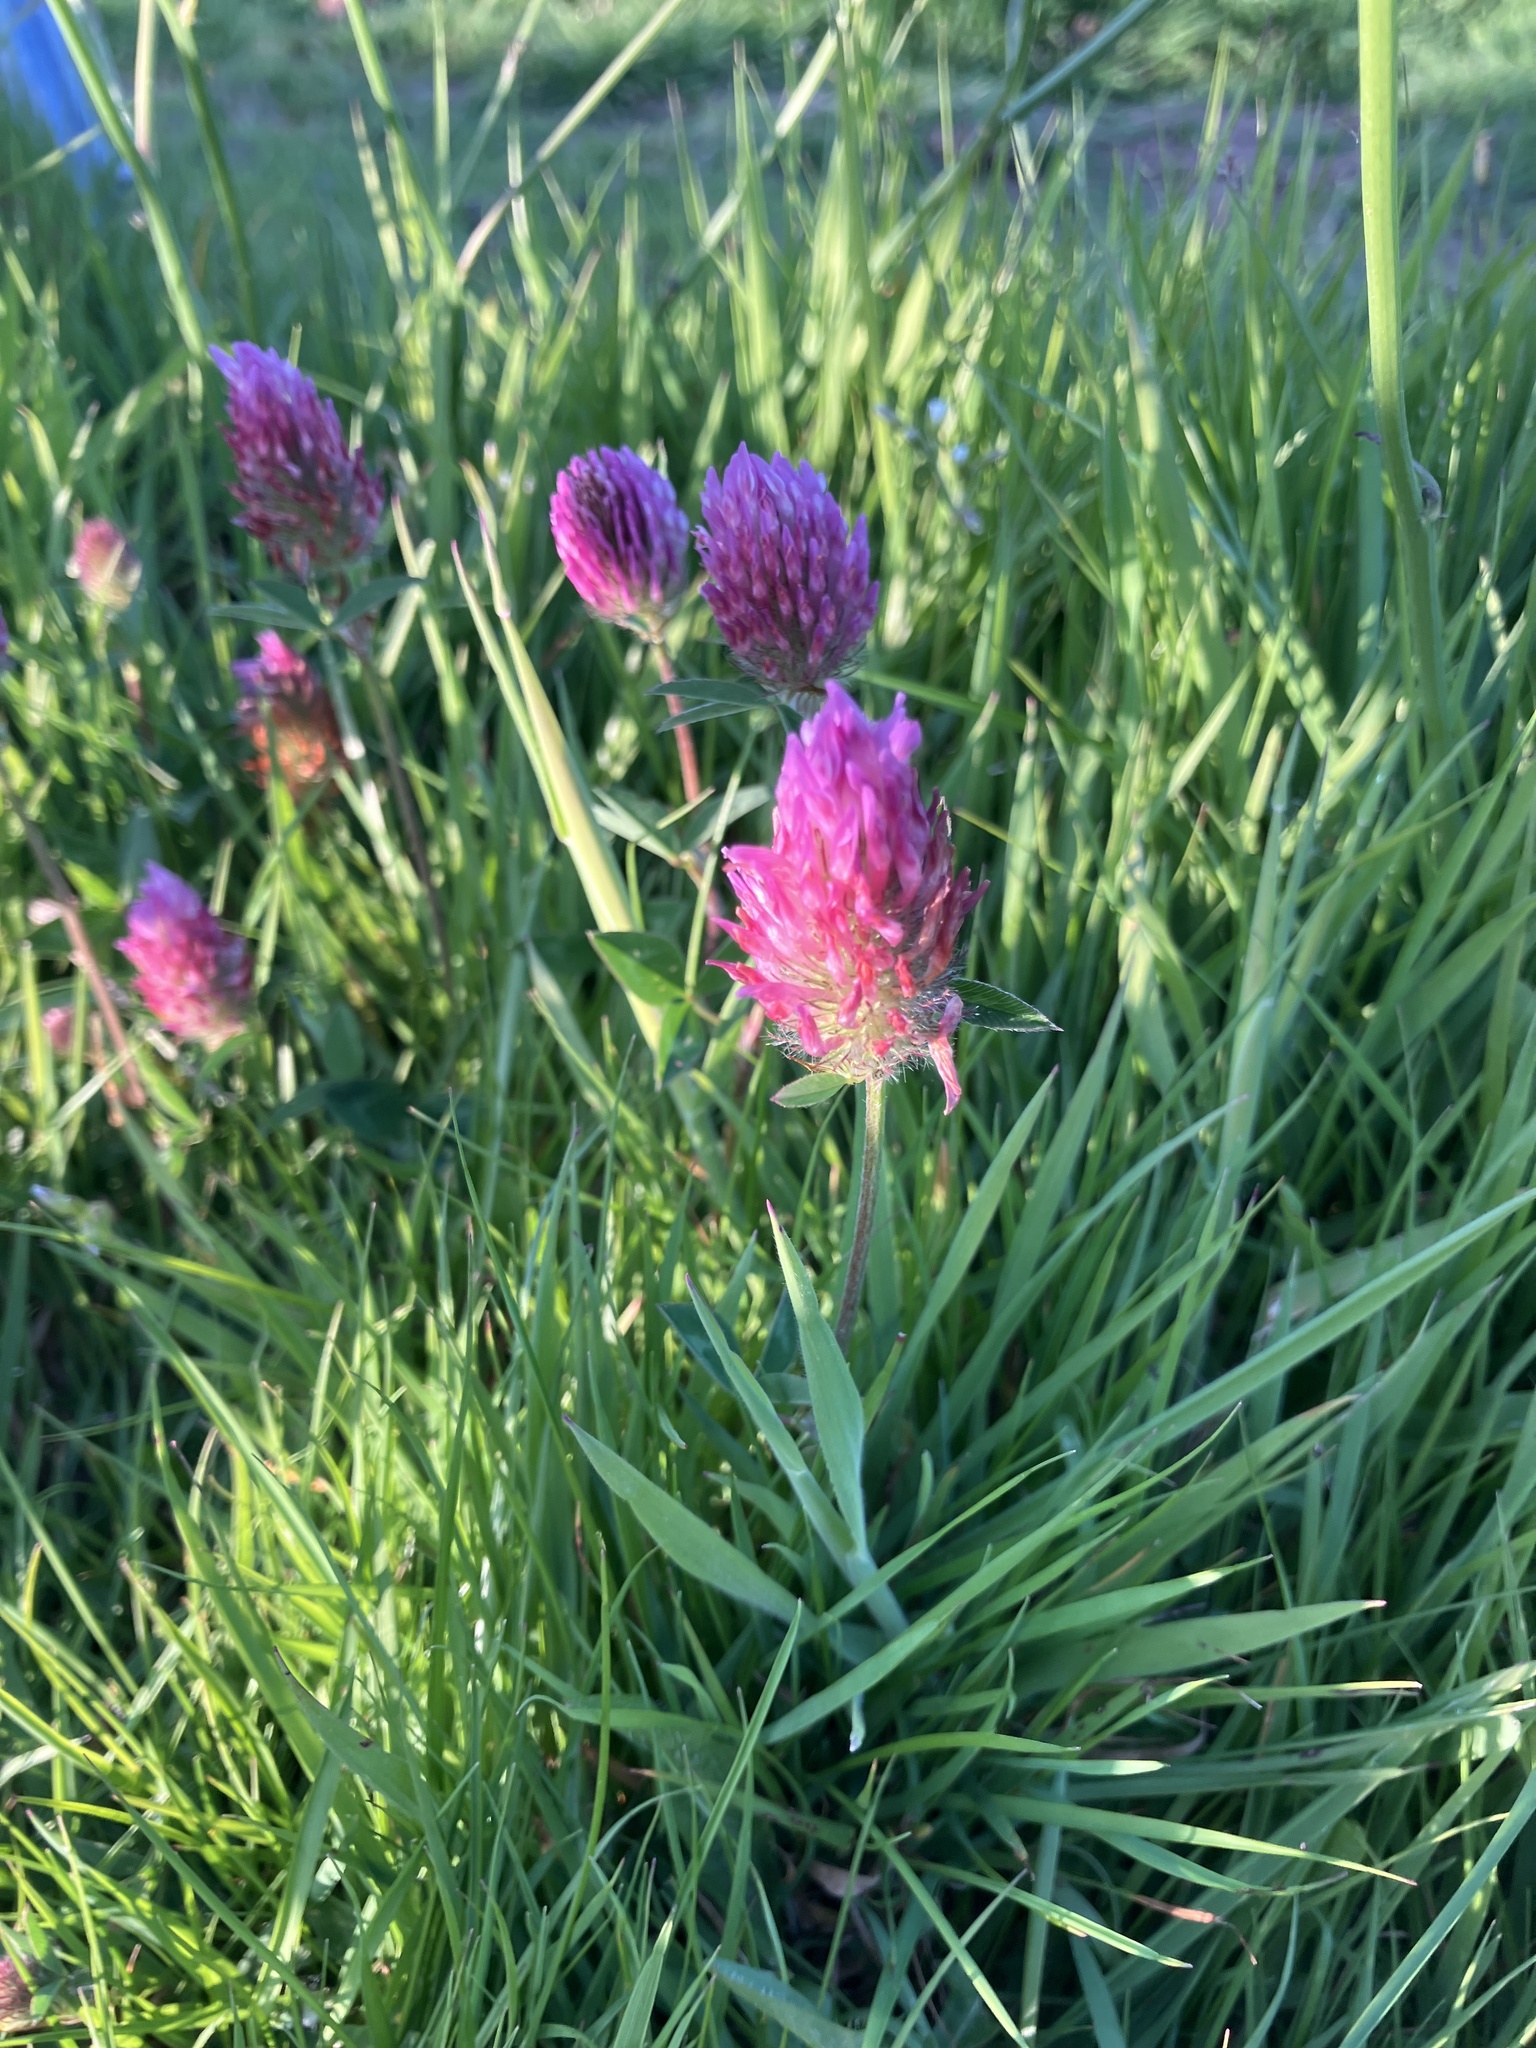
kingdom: Plantae
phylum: Tracheophyta
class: Magnoliopsida
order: Fabales
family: Fabaceae
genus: Trifolium
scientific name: Trifolium pratense
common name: Red clover
